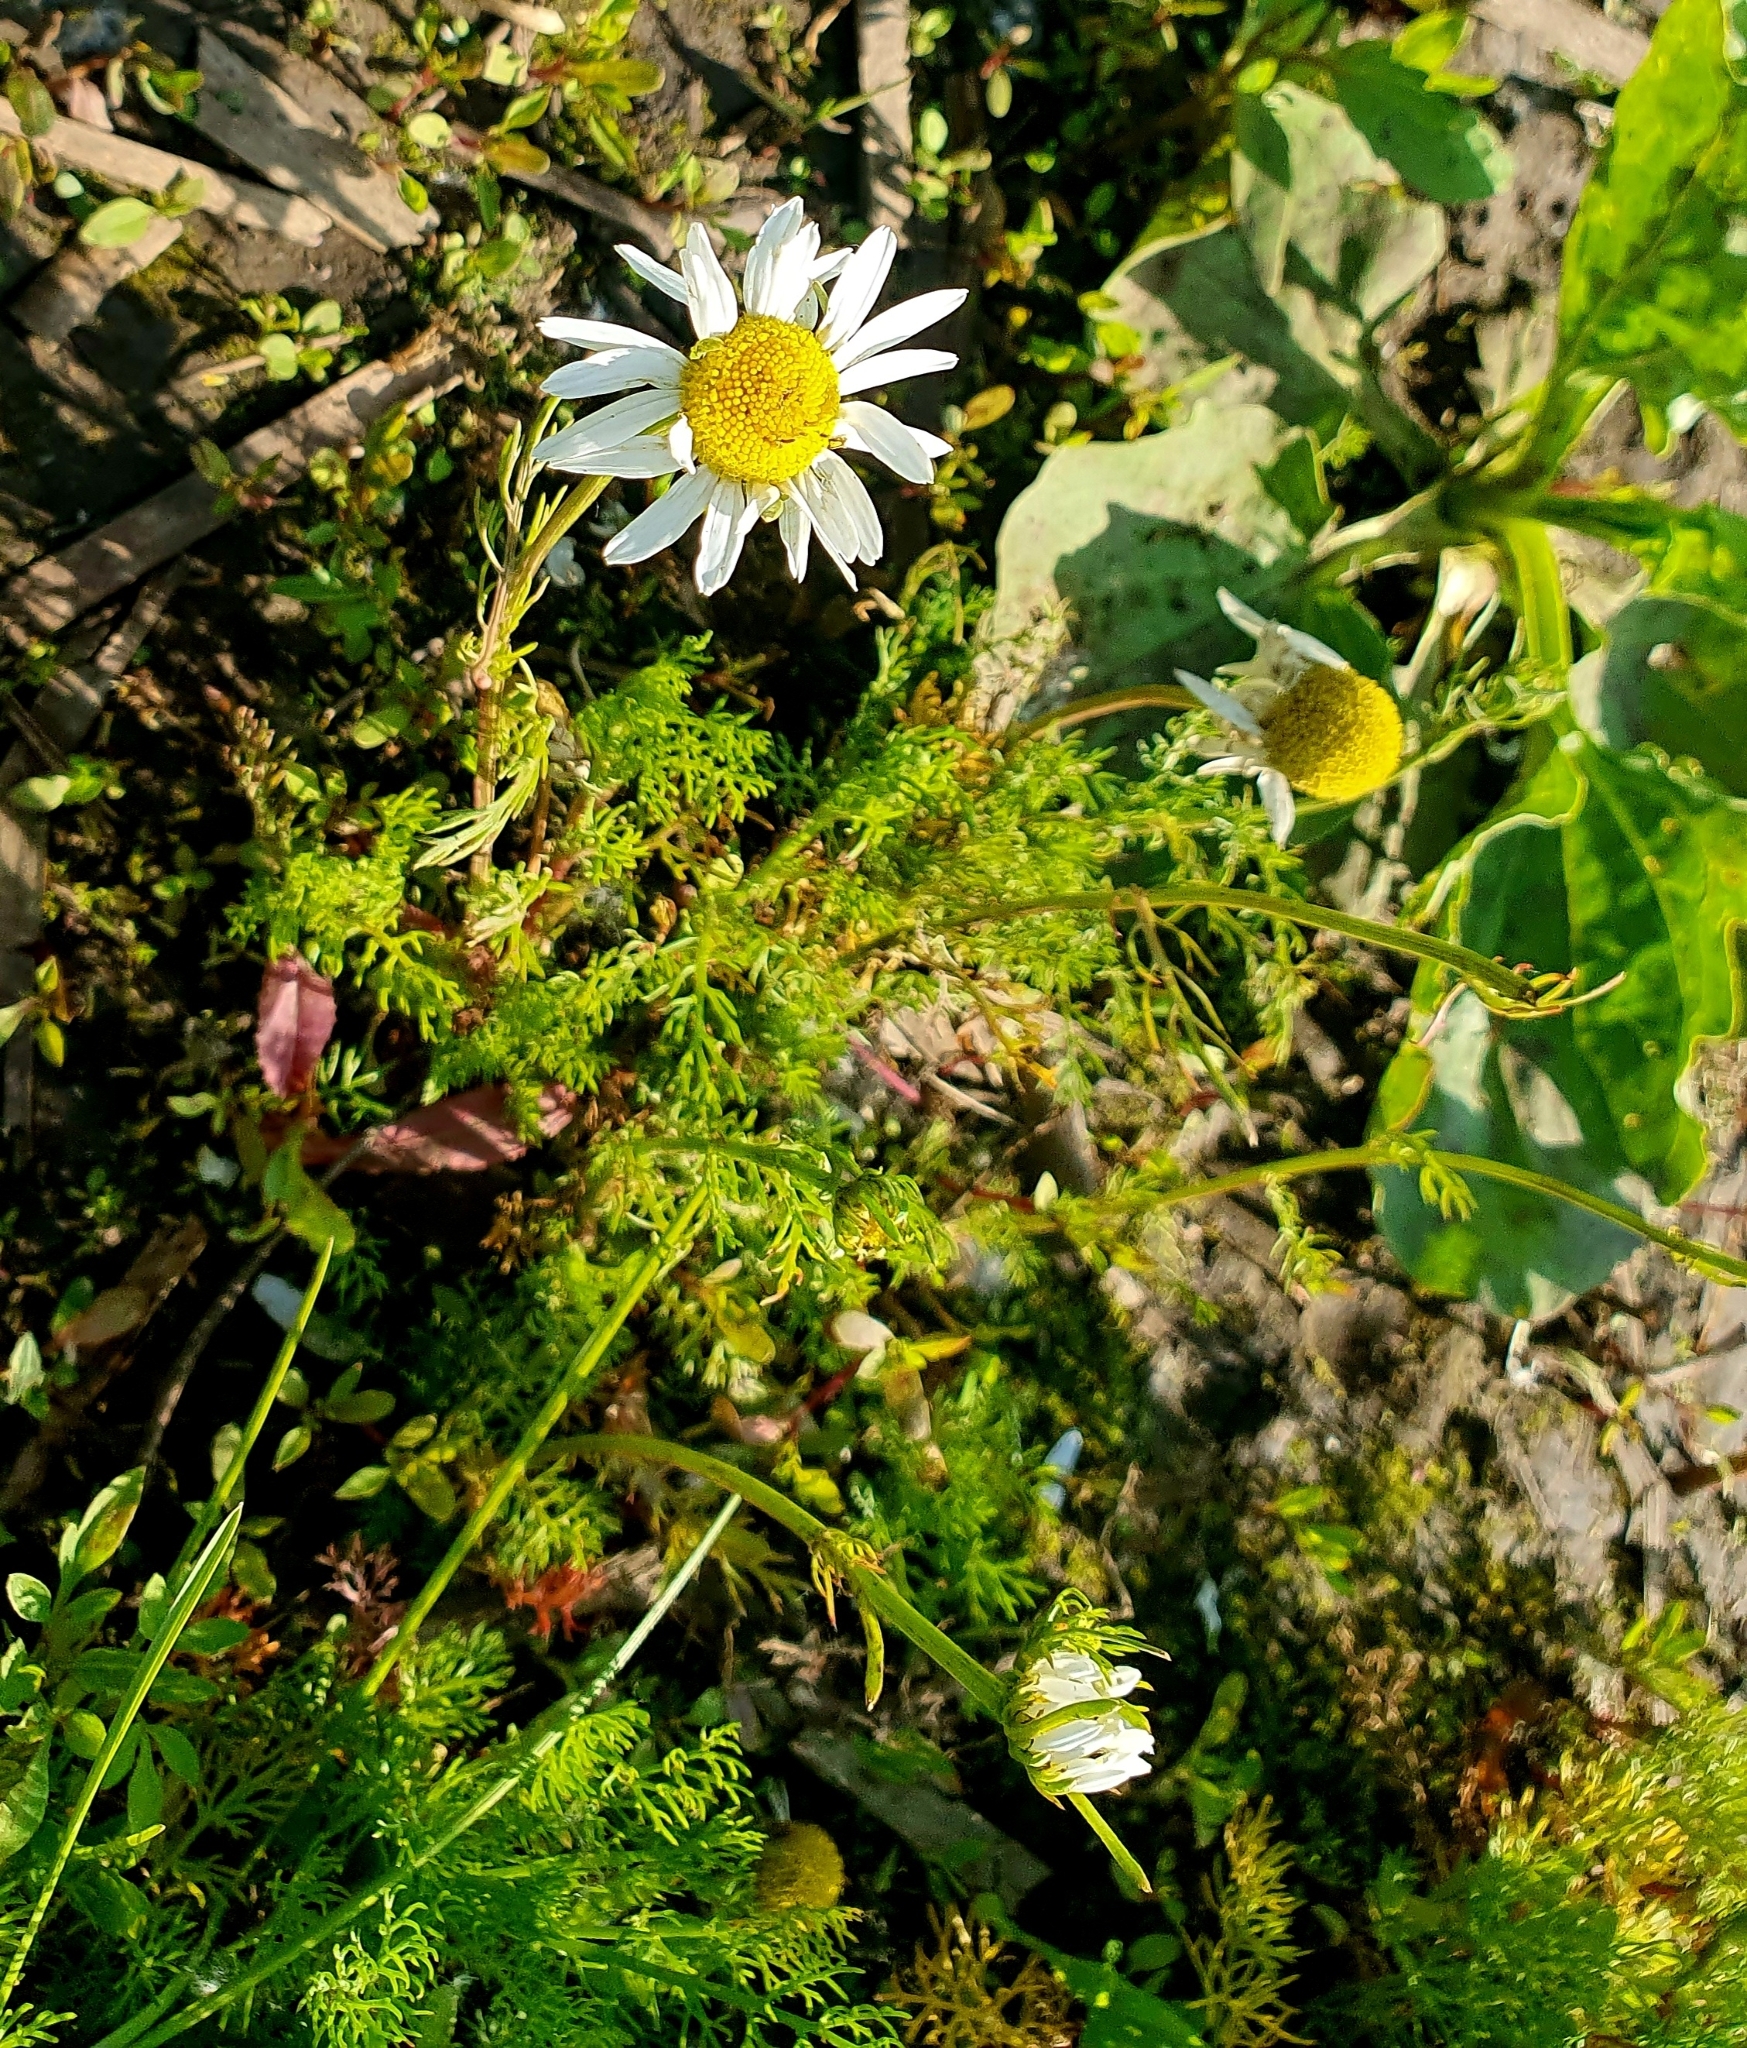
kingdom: Plantae
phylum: Tracheophyta
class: Magnoliopsida
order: Asterales
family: Asteraceae
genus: Tripleurospermum
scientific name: Tripleurospermum inodorum
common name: Scentless mayweed
